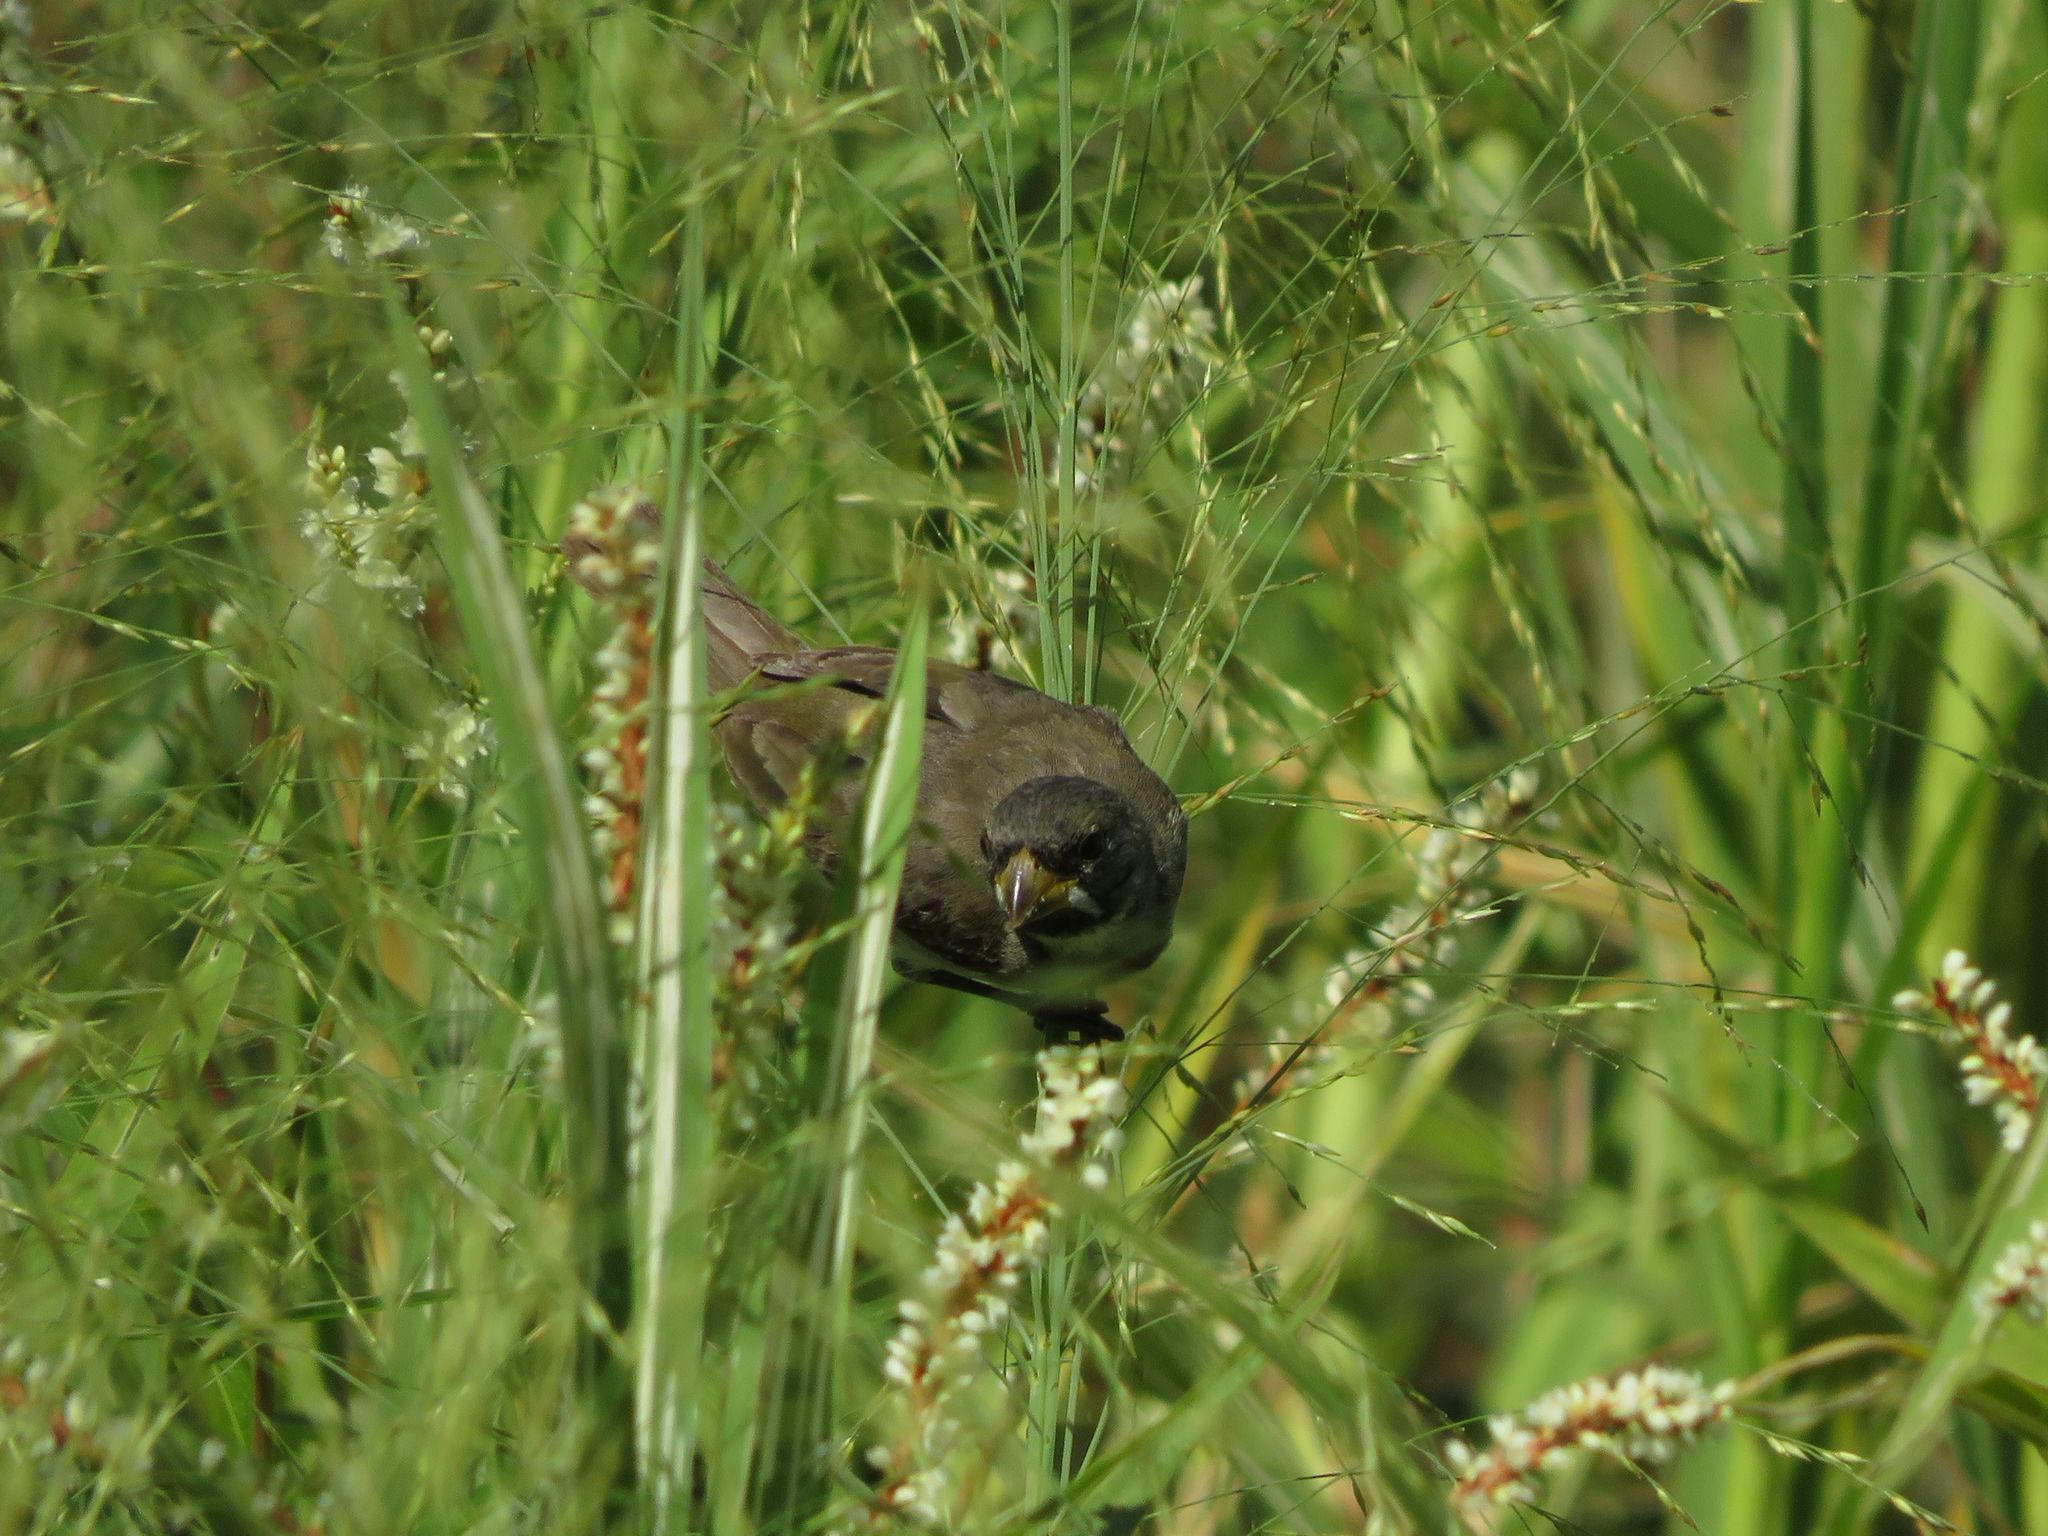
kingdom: Animalia
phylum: Chordata
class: Aves
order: Passeriformes
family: Thraupidae
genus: Sporophila
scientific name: Sporophila caerulescens
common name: Double-collared seedeater
